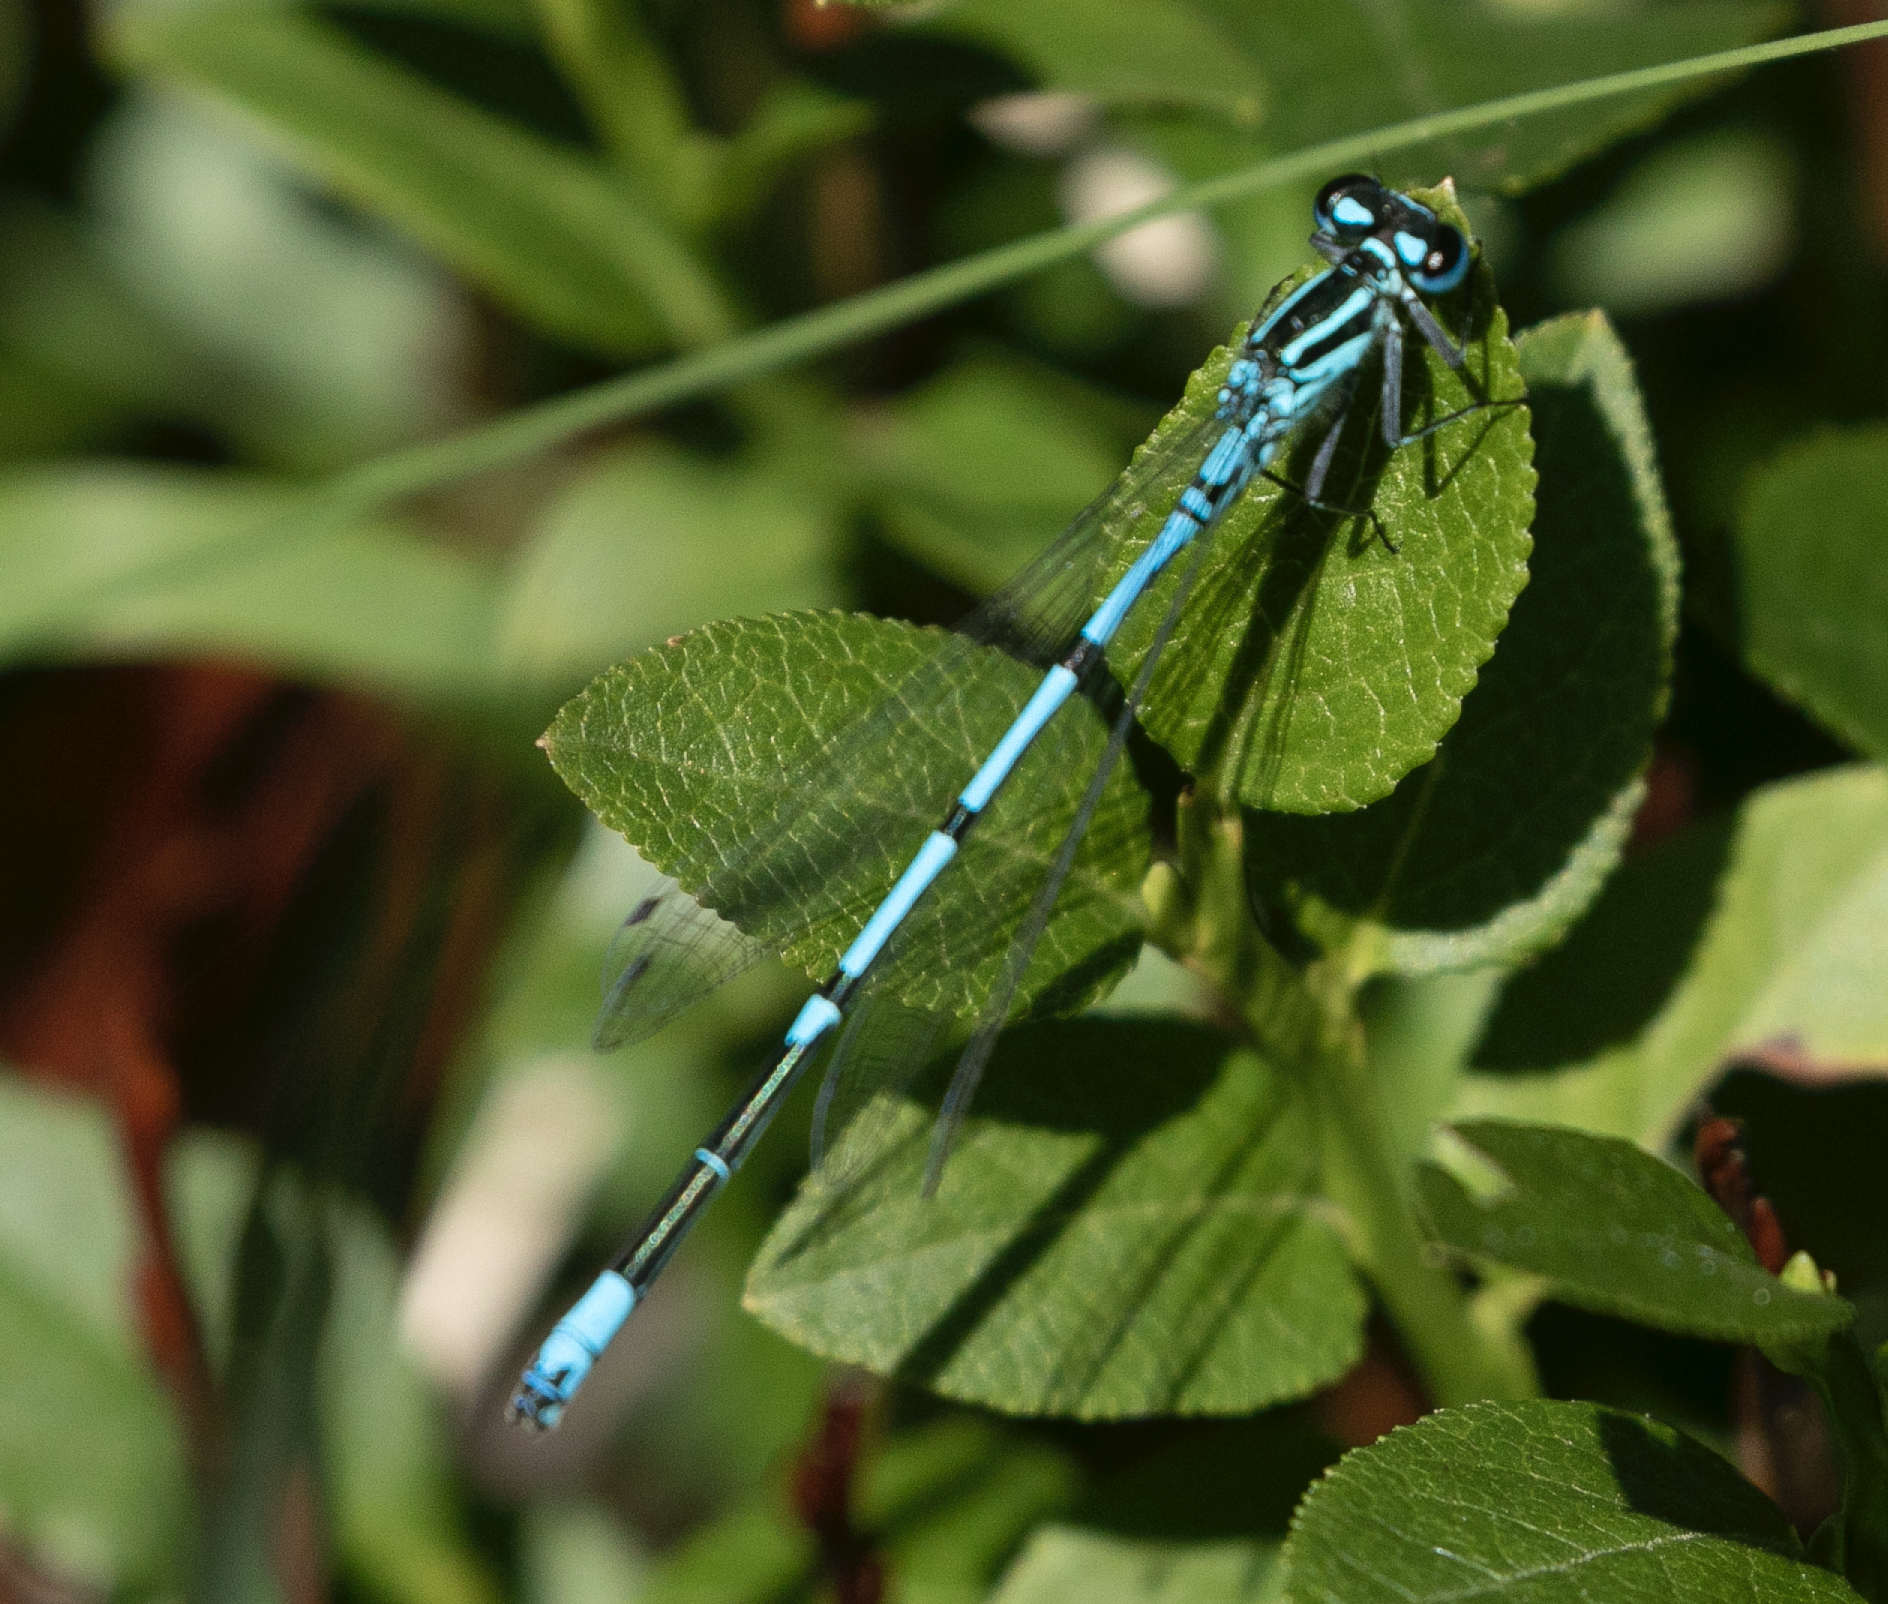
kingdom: Animalia
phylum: Arthropoda
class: Insecta
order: Odonata
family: Coenagrionidae
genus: Coenagrion
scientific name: Coenagrion puella
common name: Azure damselfly
